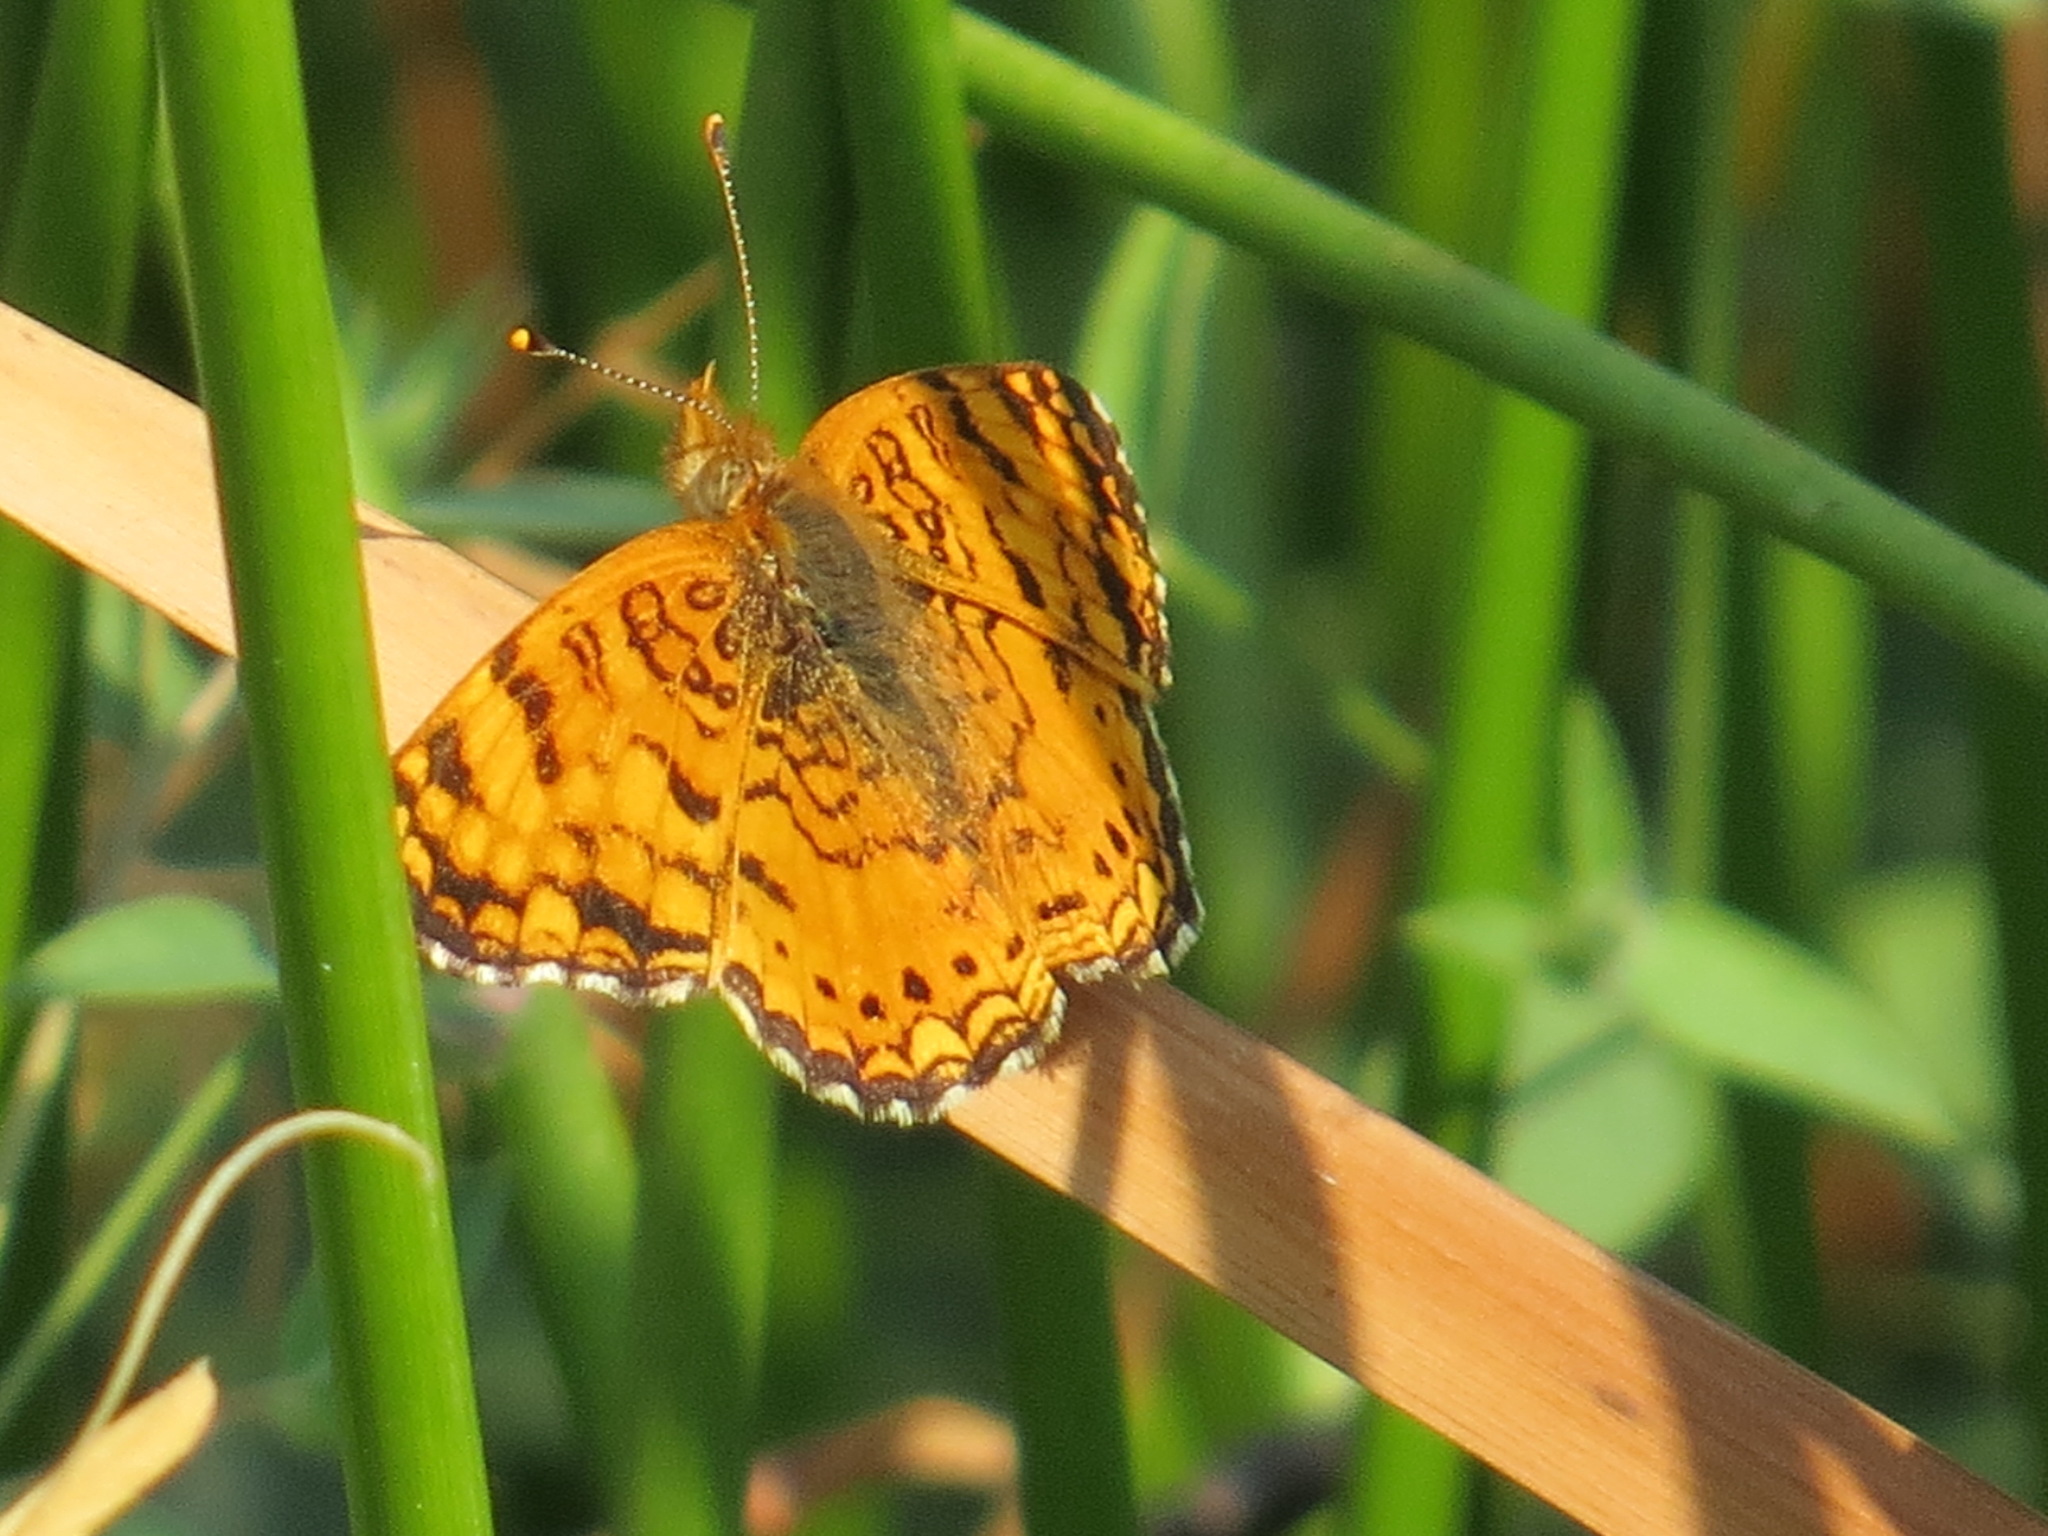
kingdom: Animalia
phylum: Arthropoda
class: Insecta
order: Lepidoptera
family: Nymphalidae
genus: Eresia
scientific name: Eresia aveyrona
